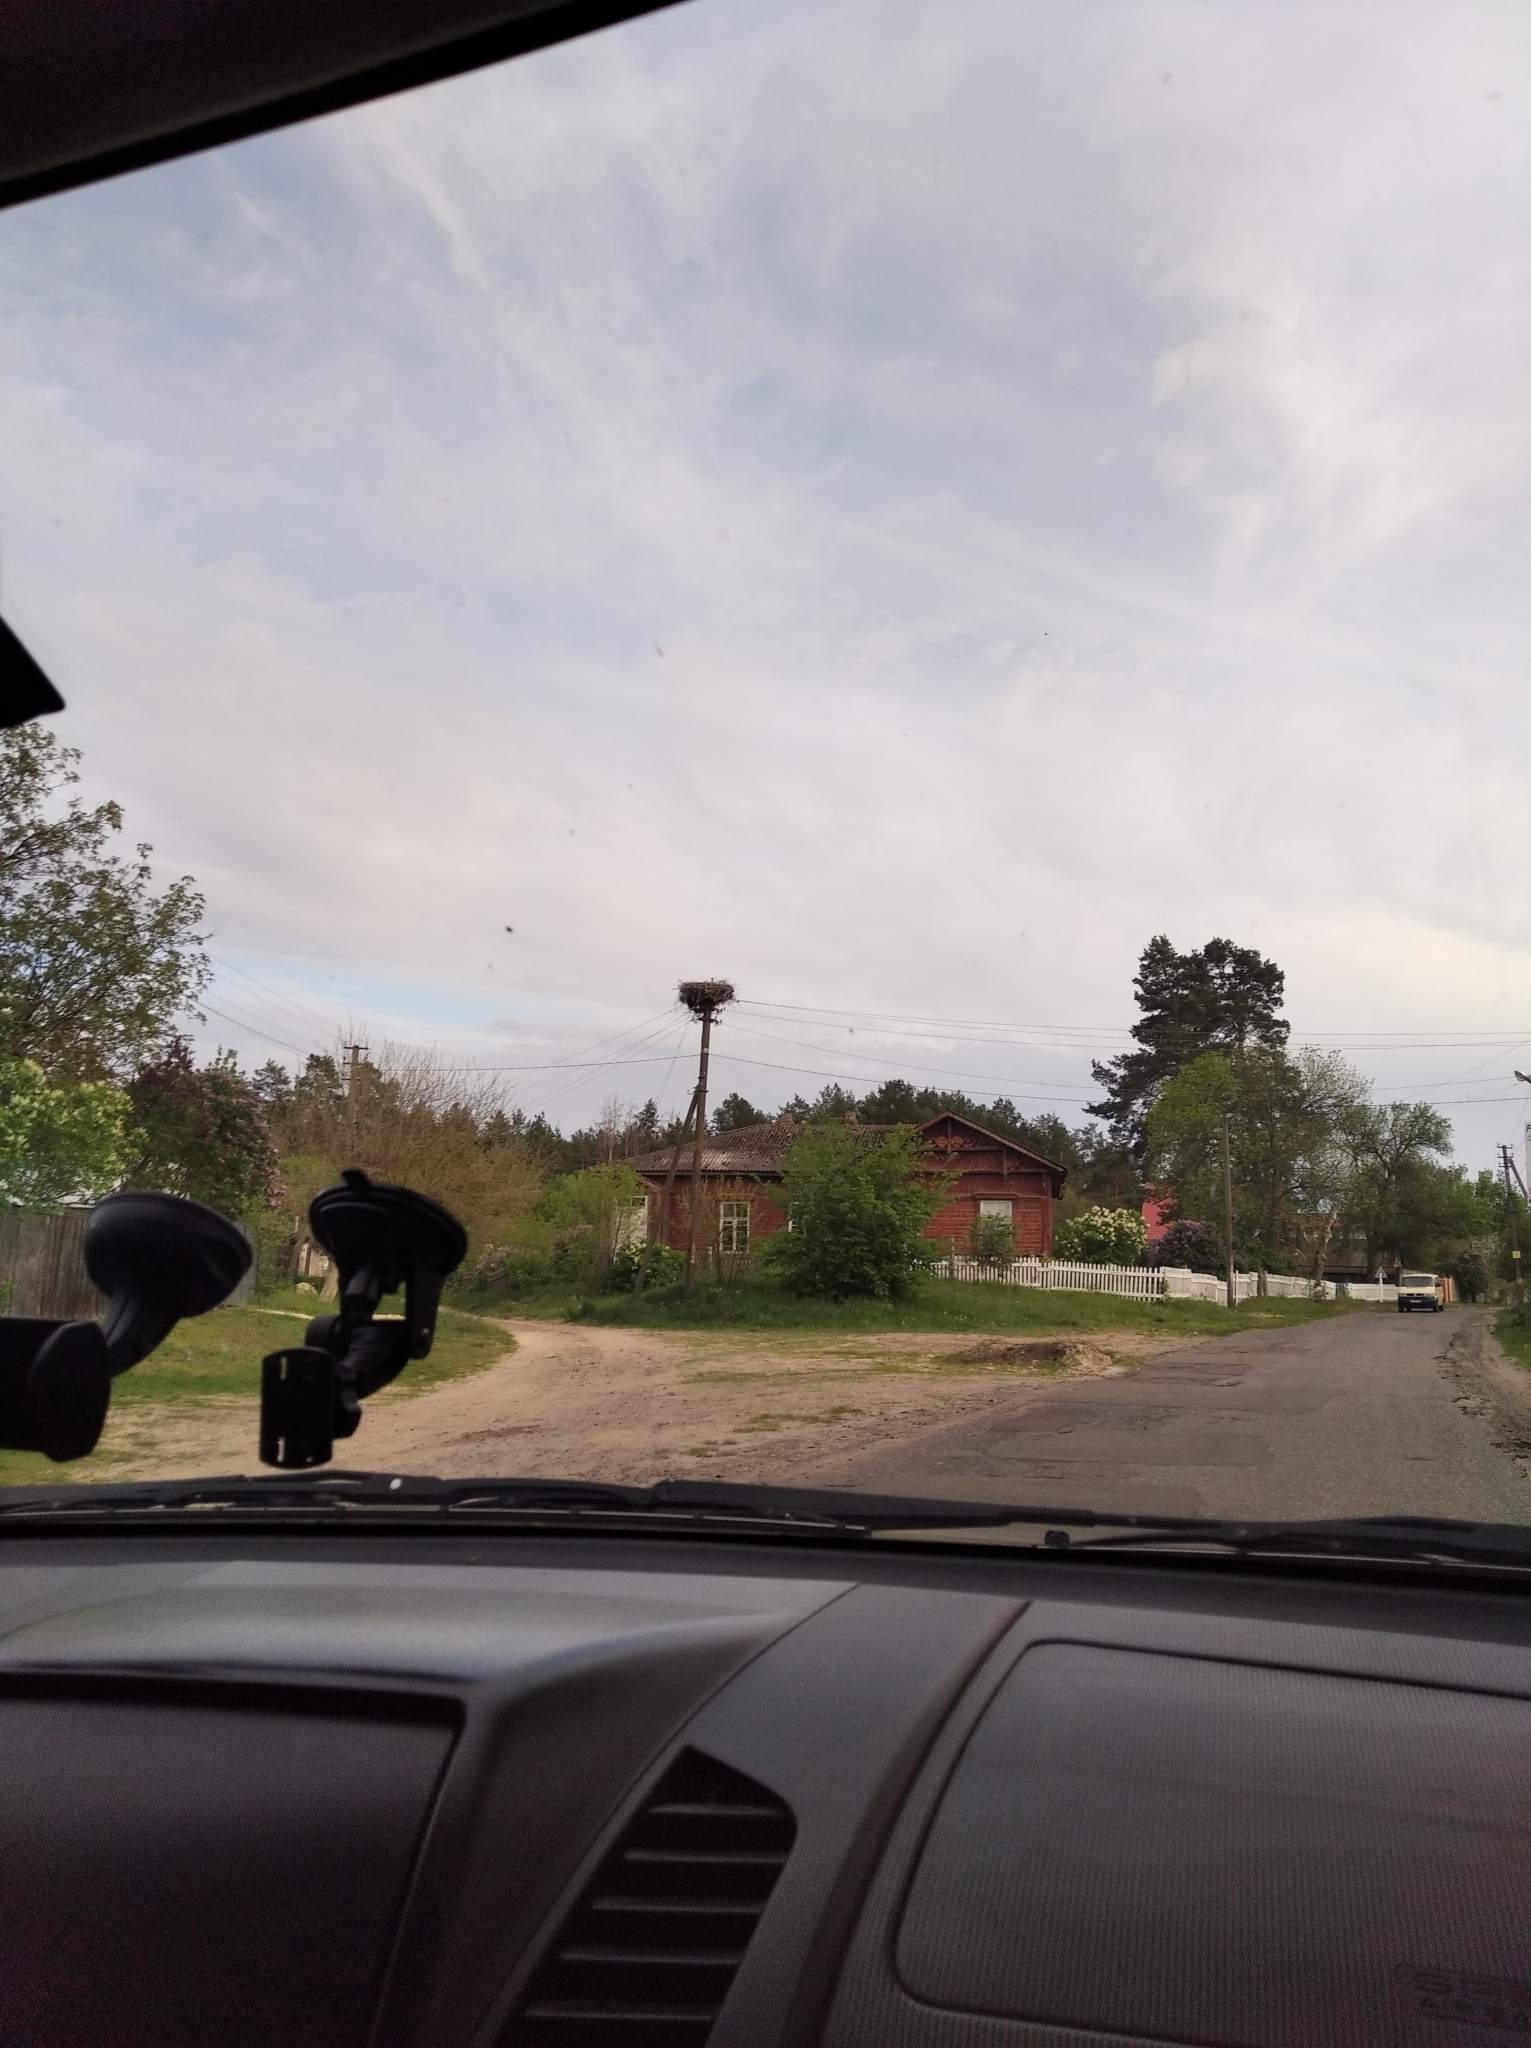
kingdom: Animalia
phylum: Chordata
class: Aves
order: Ciconiiformes
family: Ciconiidae
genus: Ciconia
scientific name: Ciconia ciconia
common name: White stork
